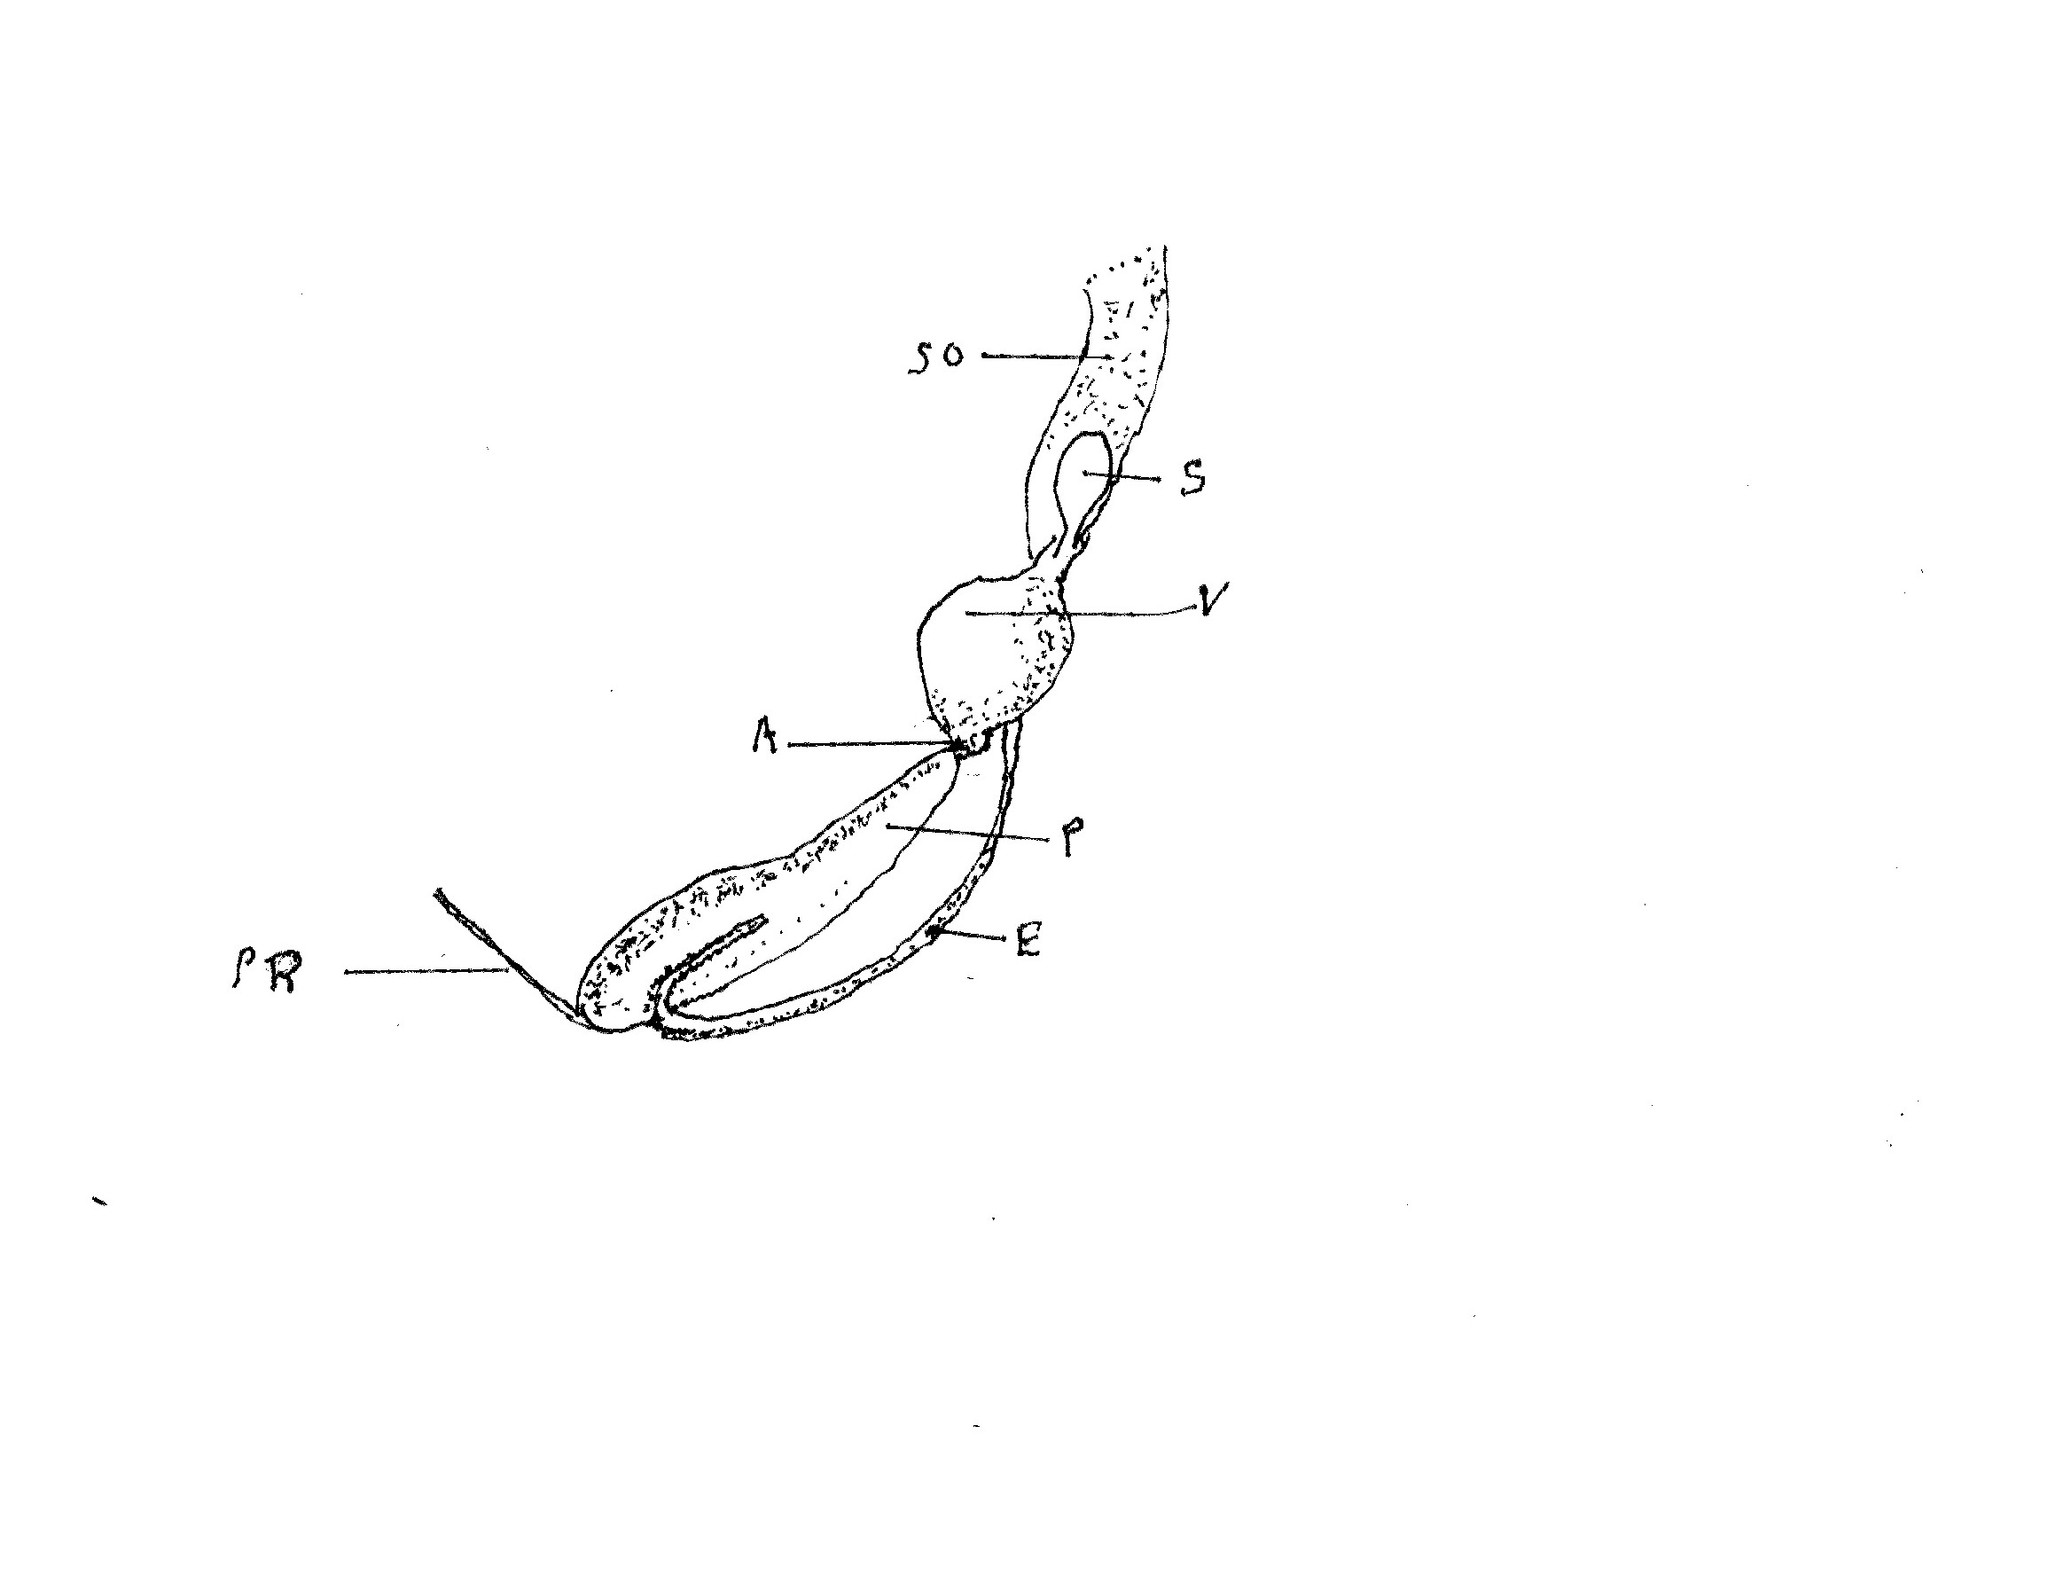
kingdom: Animalia
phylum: Mollusca
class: Gastropoda
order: Stylommatophora
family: Ariolimacidae
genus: Anadenulus
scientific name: Anadenulus cockerelli
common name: American keeled slug
